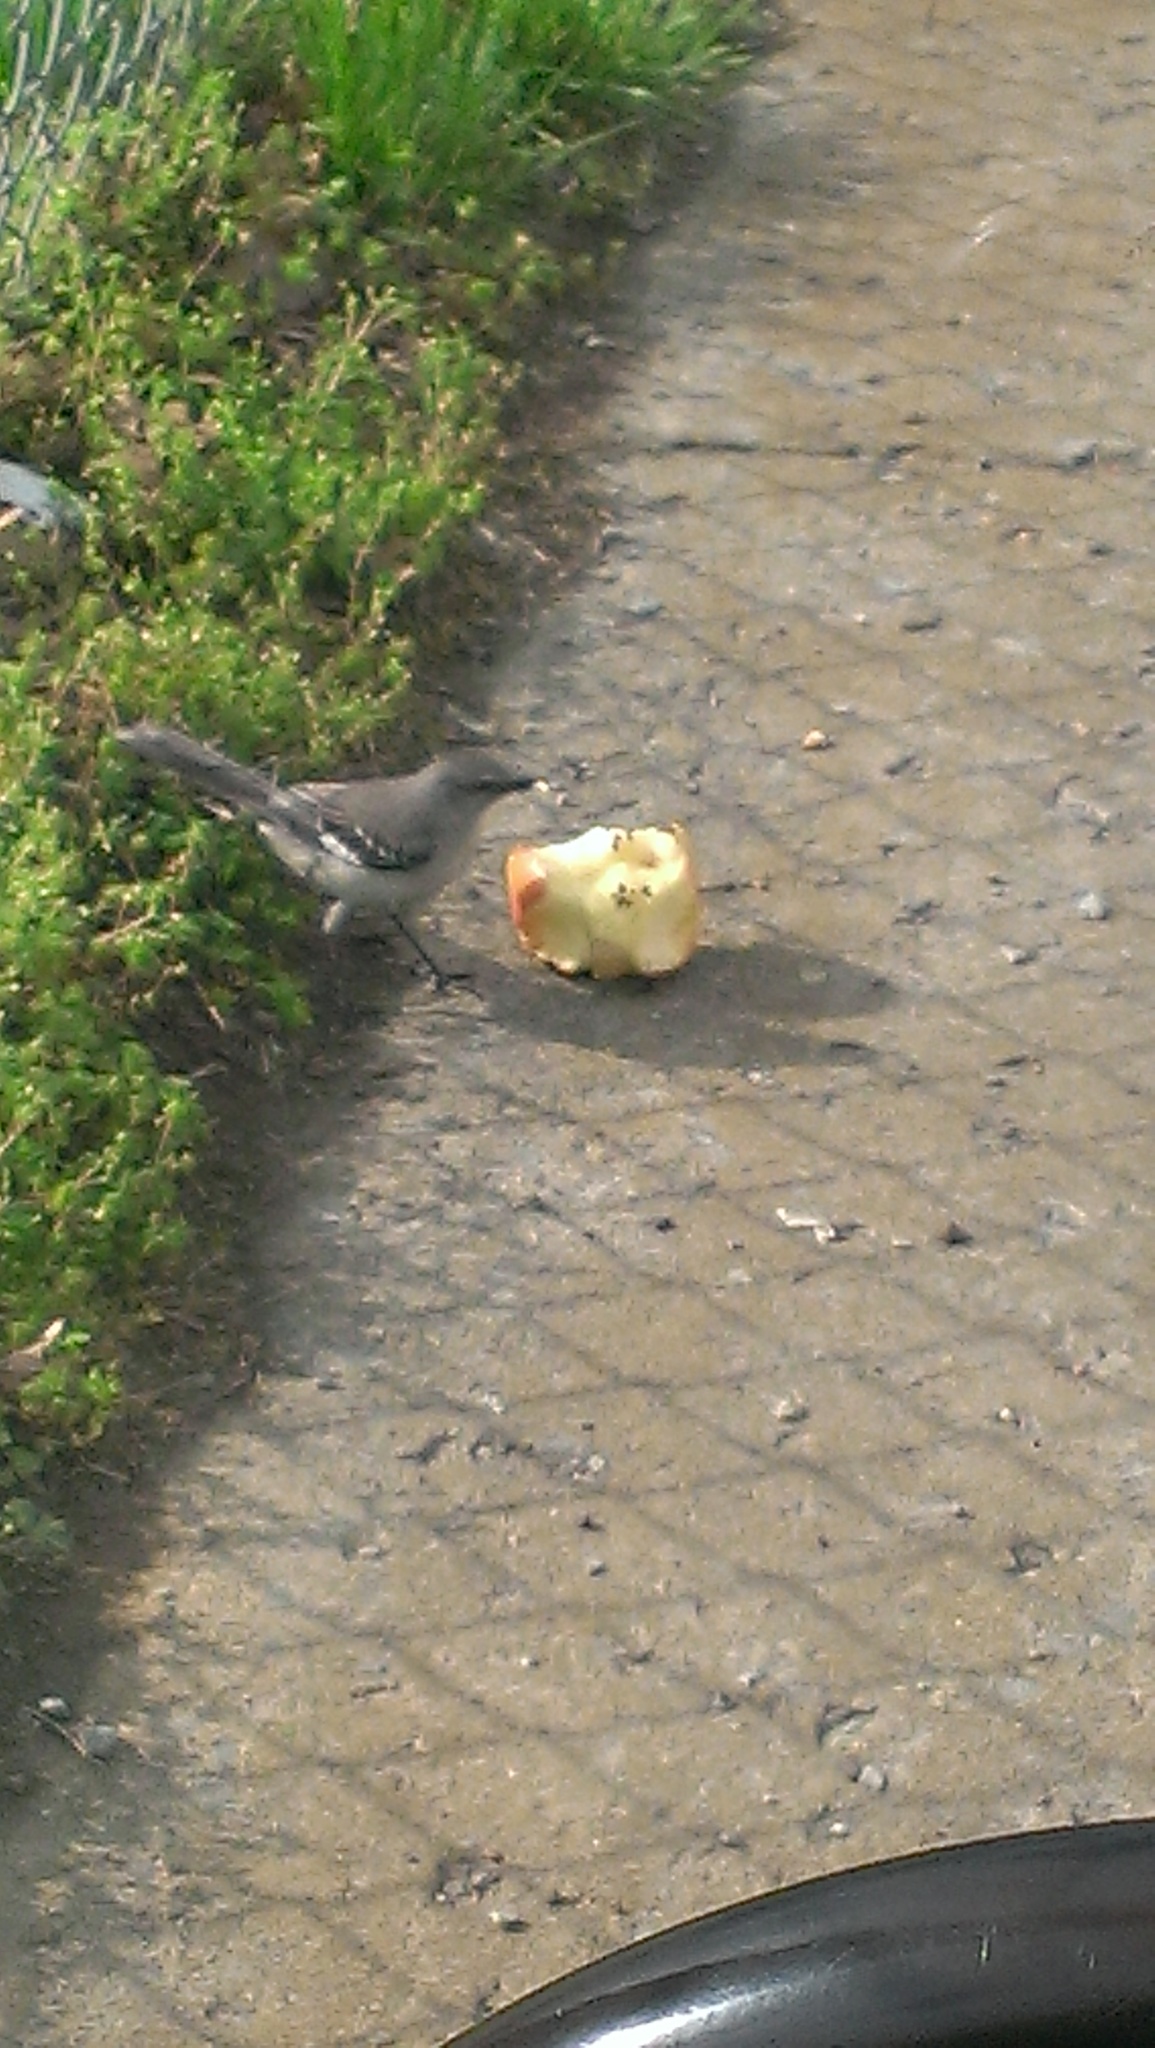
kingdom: Animalia
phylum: Chordata
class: Aves
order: Passeriformes
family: Mimidae
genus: Mimus
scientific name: Mimus polyglottos
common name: Northern mockingbird
